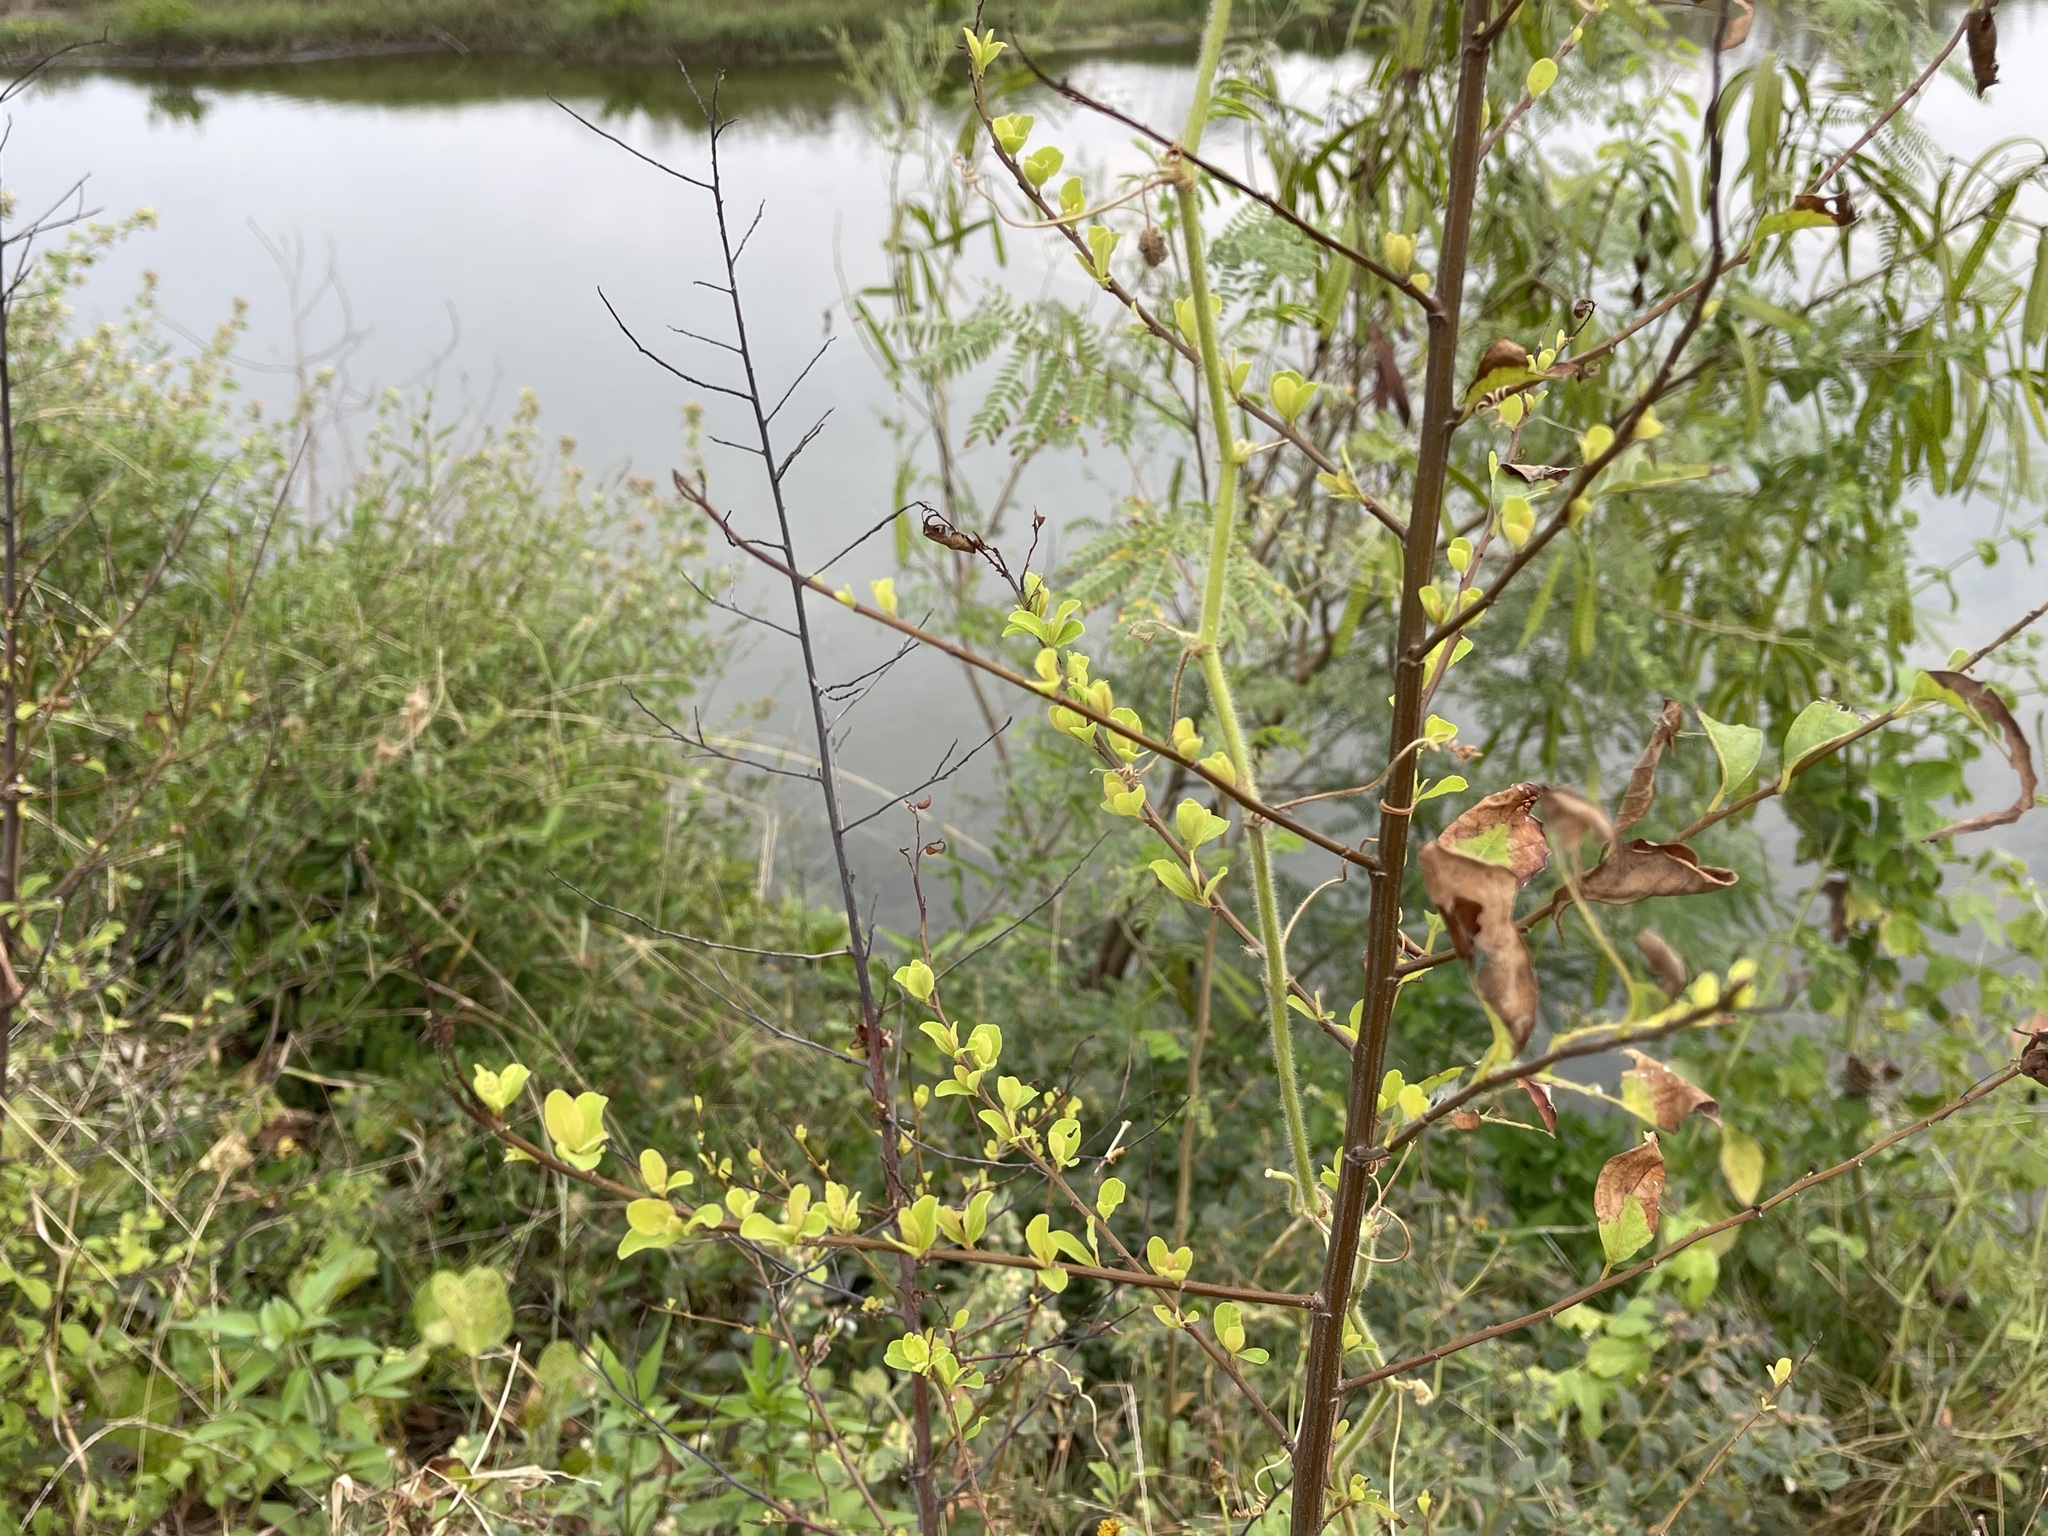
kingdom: Plantae
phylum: Tracheophyta
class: Magnoliopsida
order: Malpighiales
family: Phyllanthaceae
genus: Flueggea
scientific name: Flueggea suffruticosa
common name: Arching bushweed
